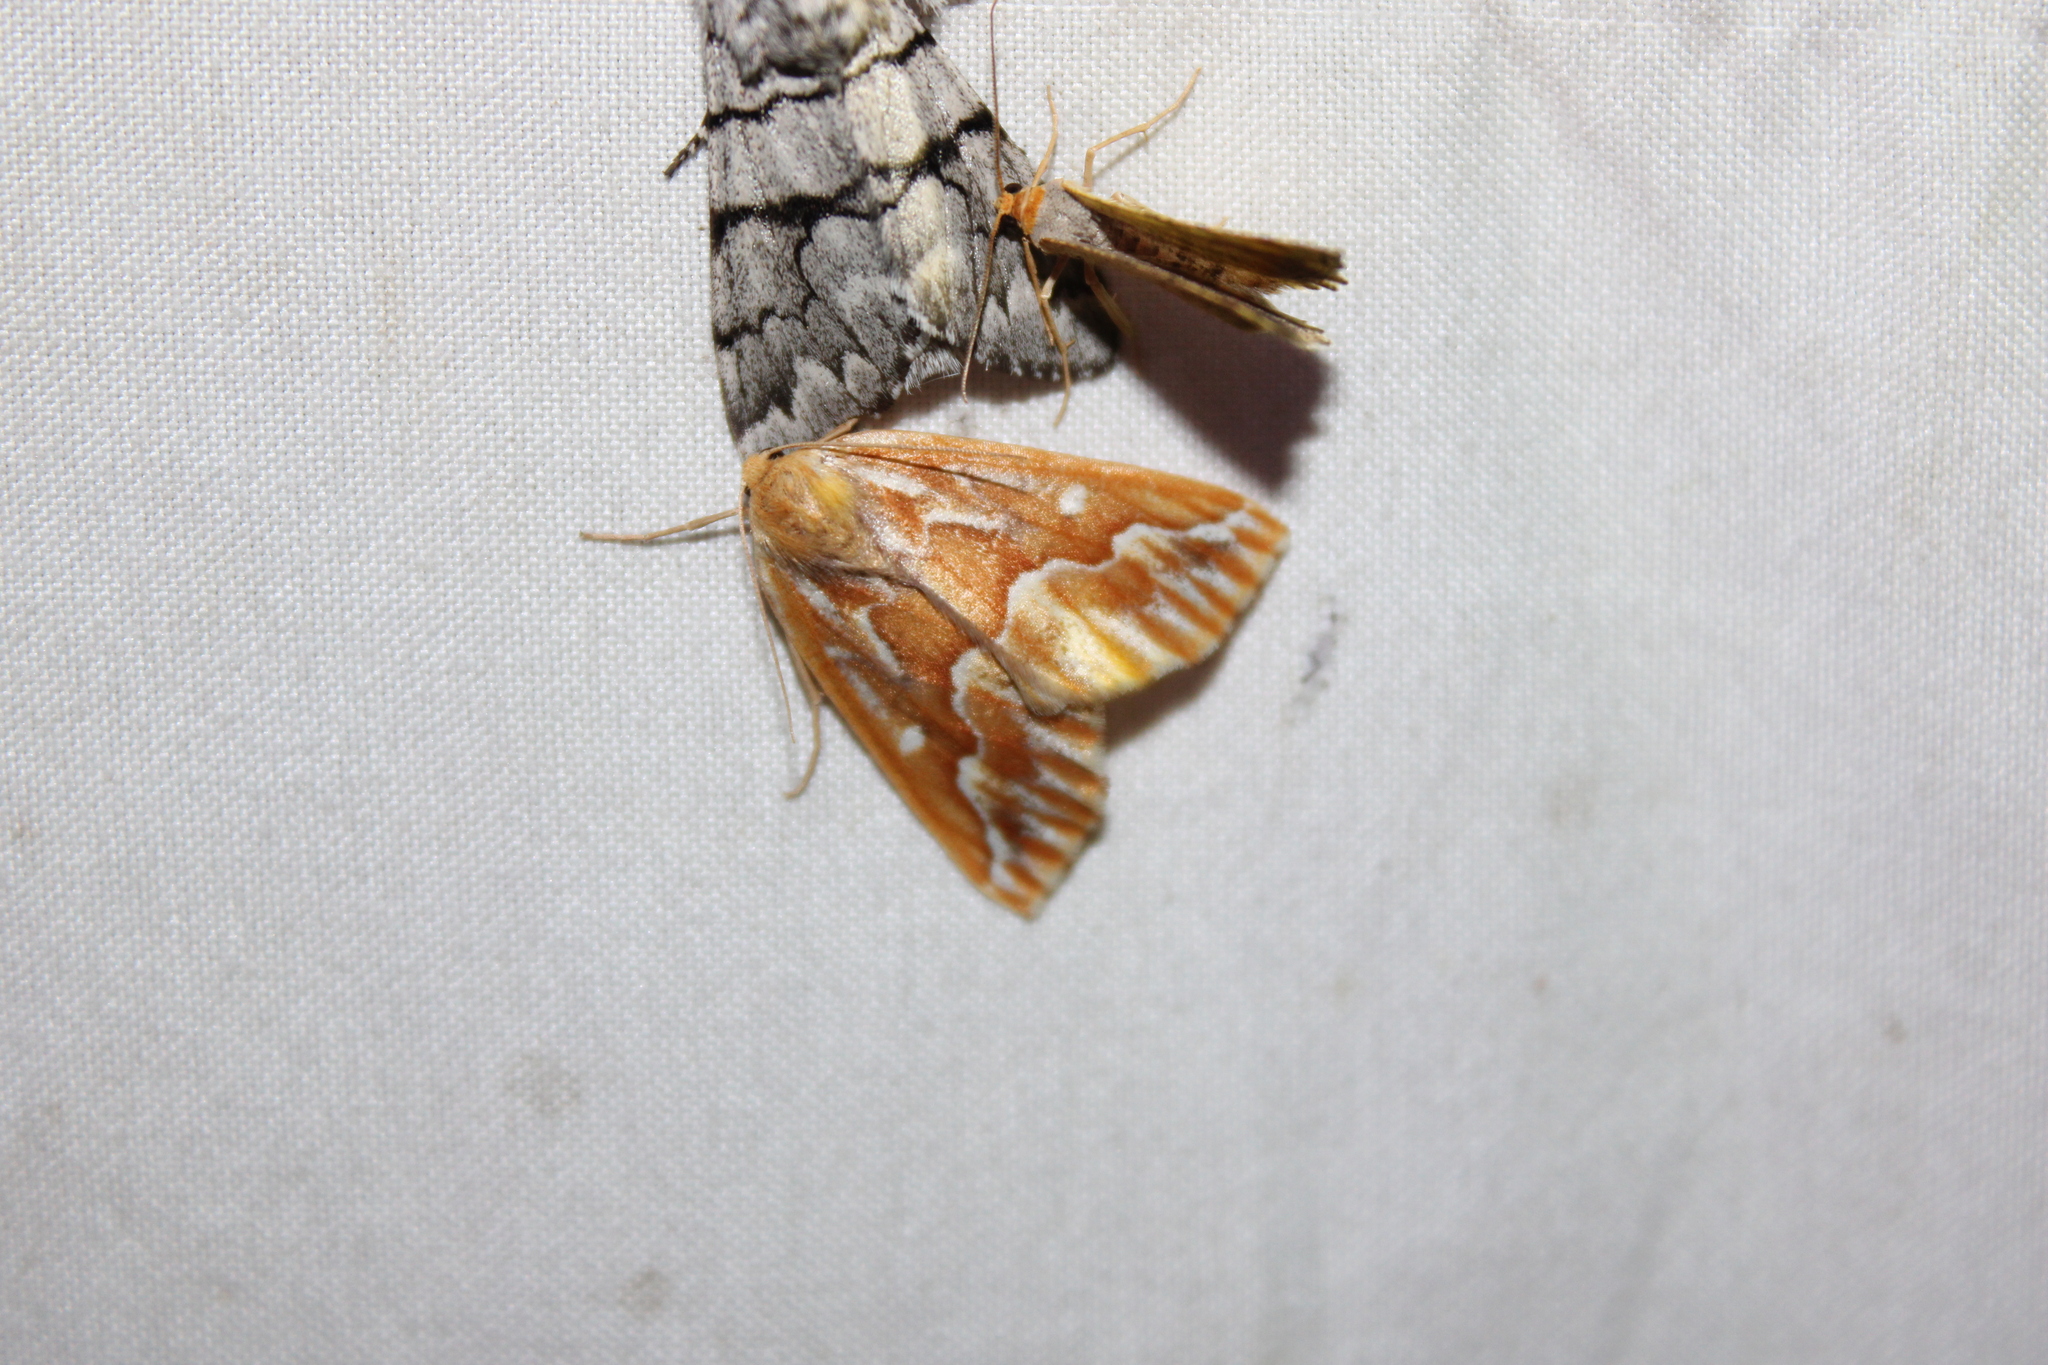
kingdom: Animalia
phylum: Arthropoda
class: Insecta
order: Lepidoptera
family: Geometridae
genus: Caripeta
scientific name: Caripeta piniata
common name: Northern pine looper moth
